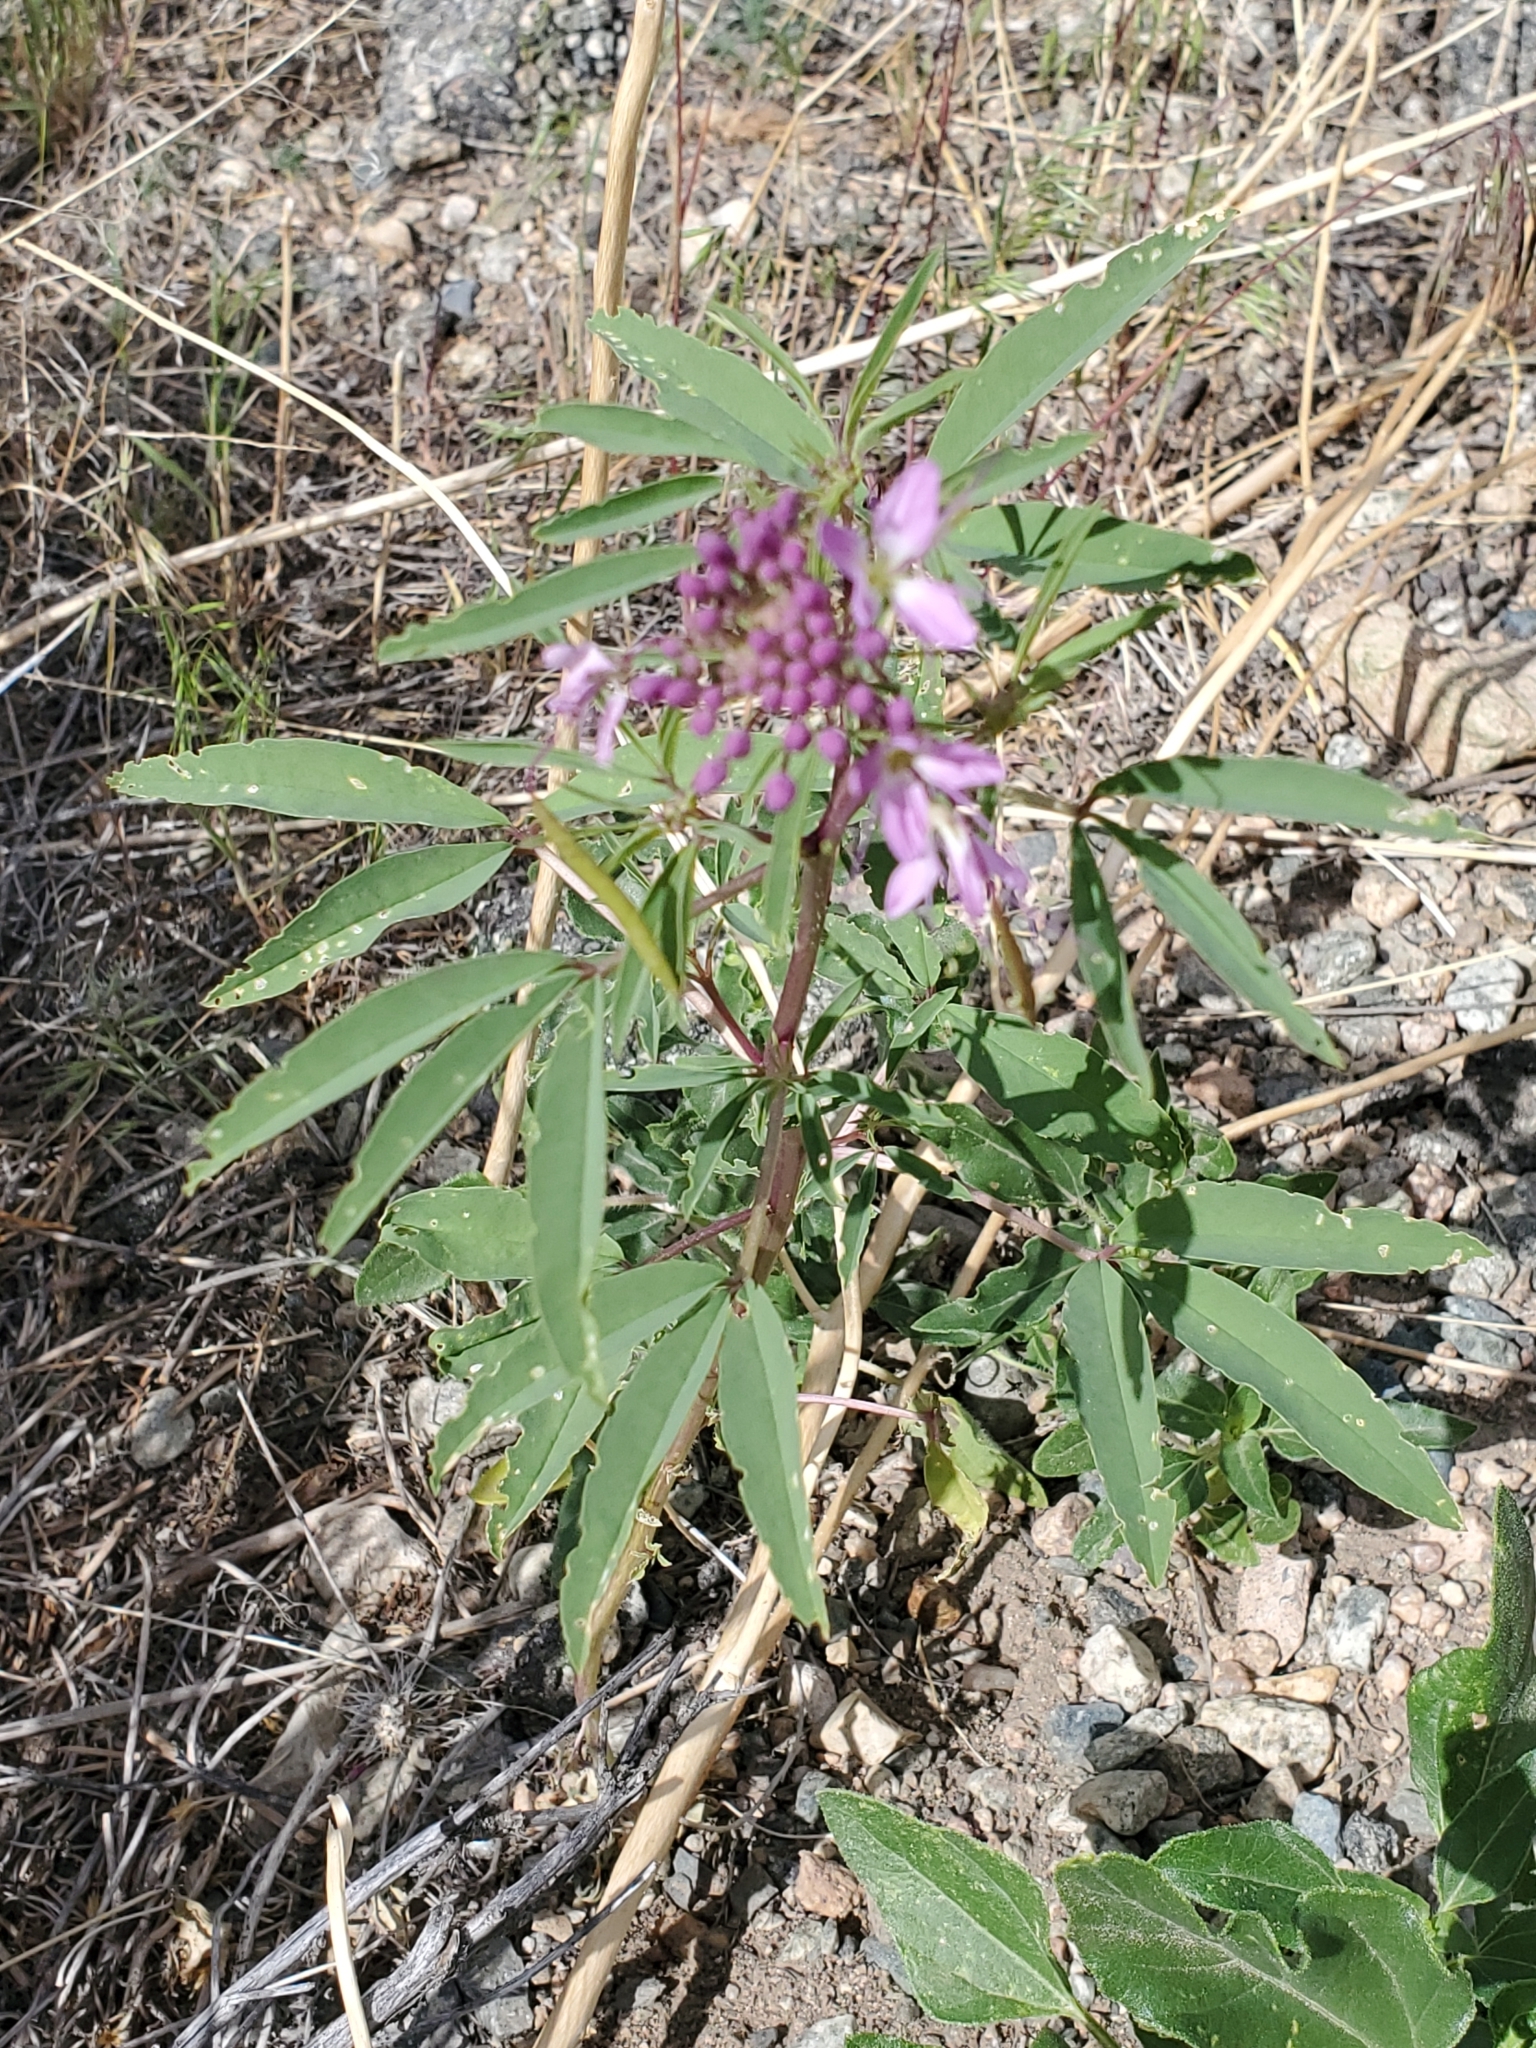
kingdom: Plantae
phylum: Tracheophyta
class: Magnoliopsida
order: Brassicales
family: Cleomaceae
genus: Cleomella
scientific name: Cleomella serrulata
